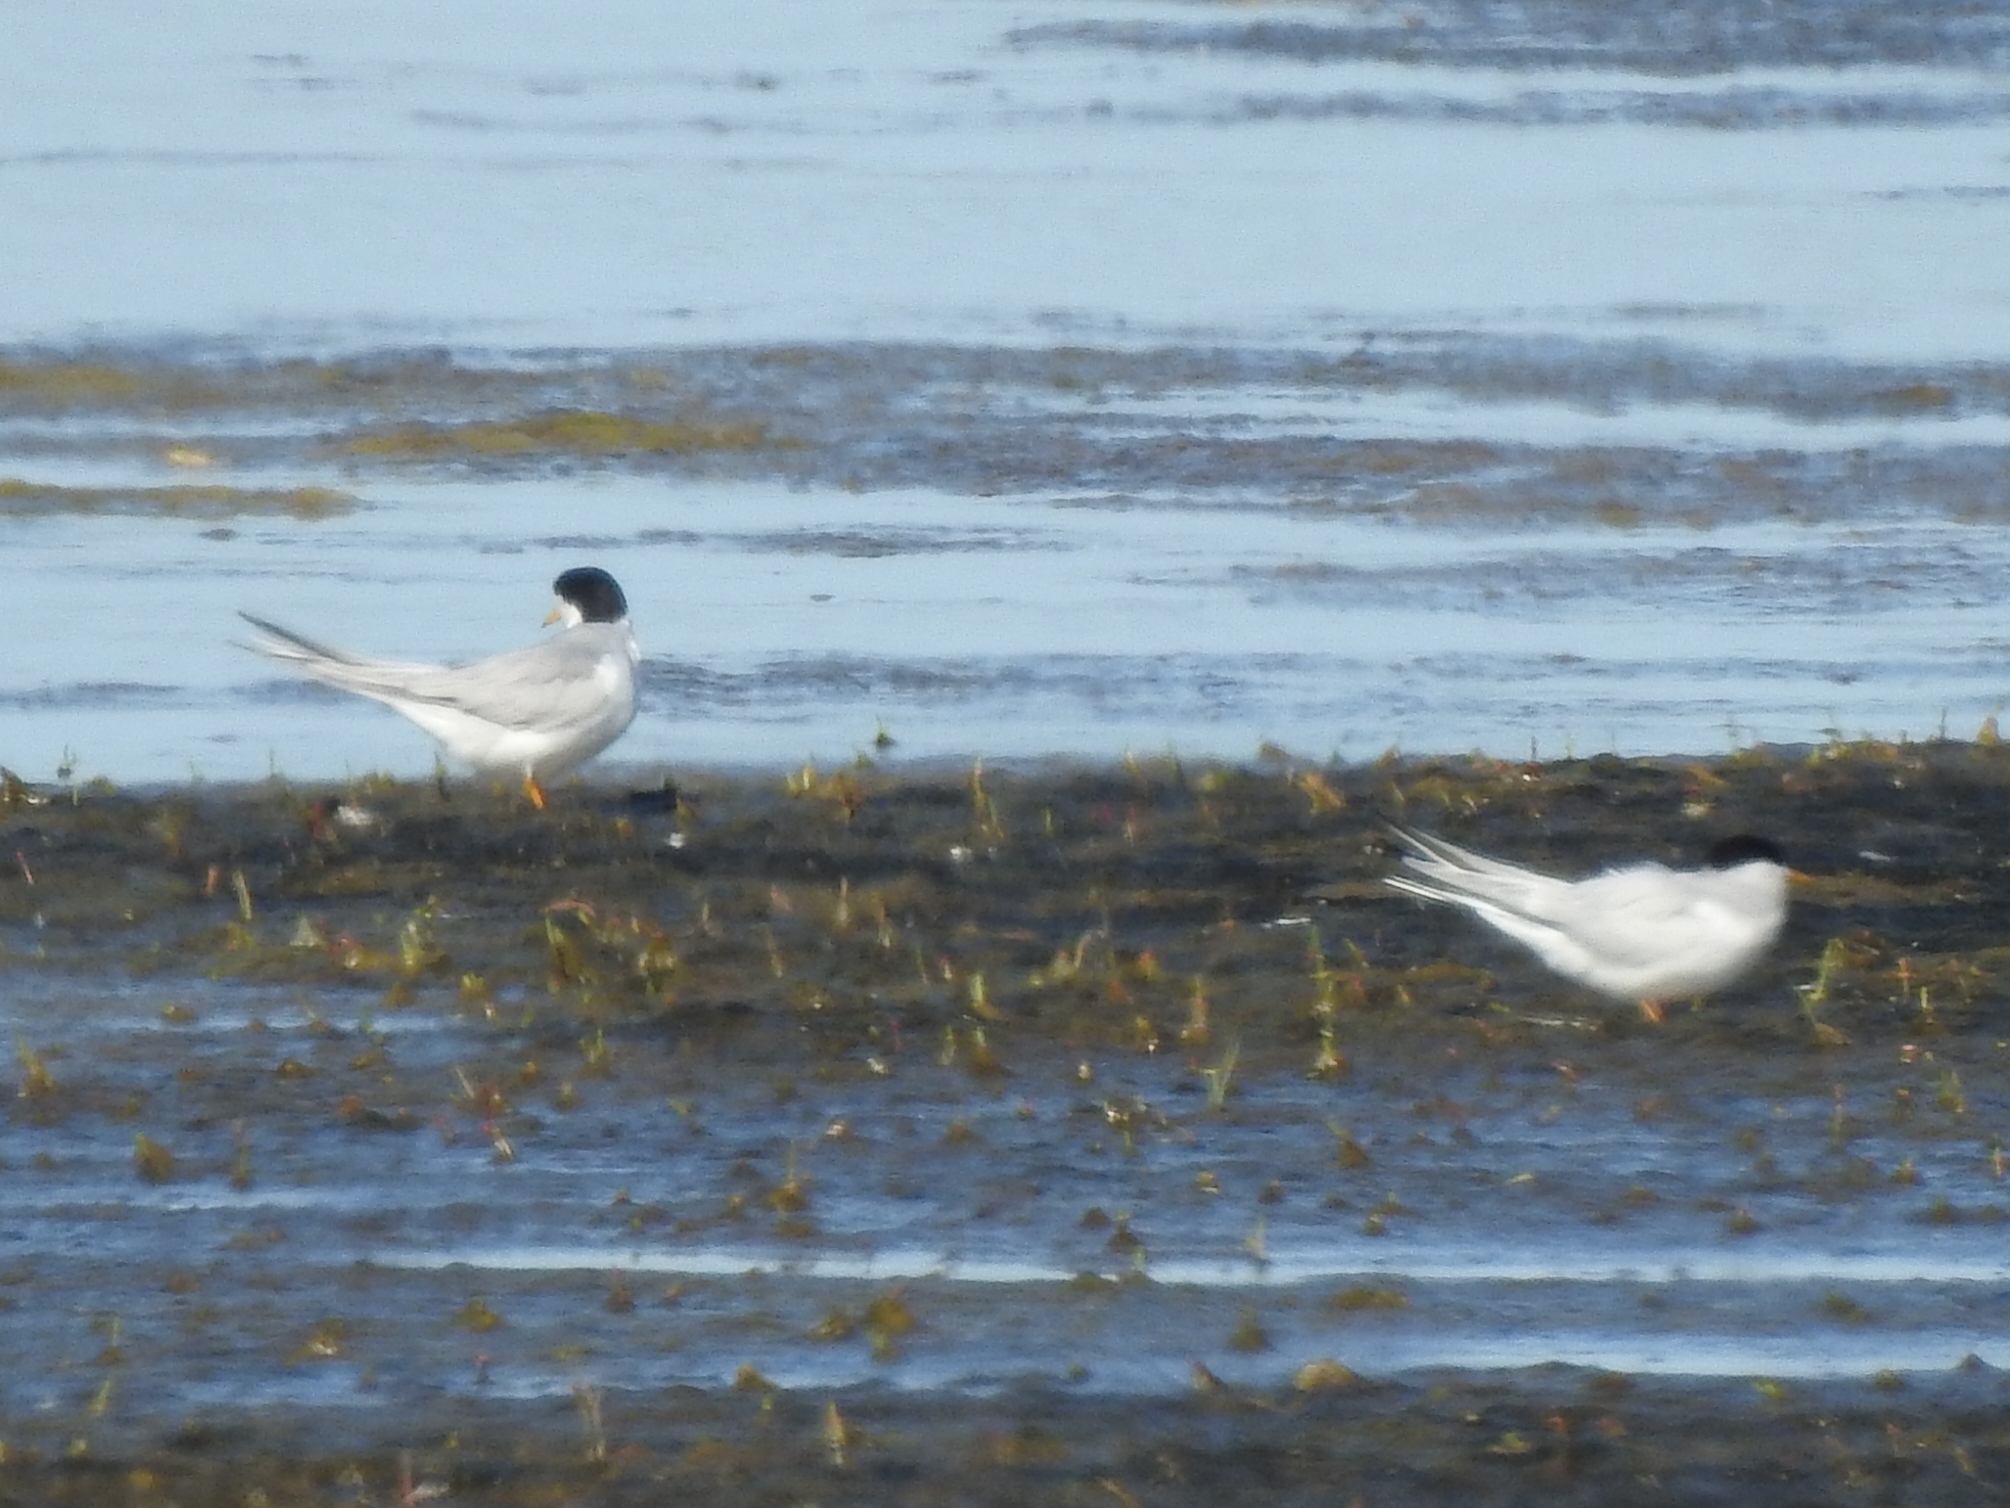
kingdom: Animalia
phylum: Chordata
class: Aves
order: Charadriiformes
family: Laridae
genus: Sternula
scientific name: Sternula antillarum
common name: Least tern
